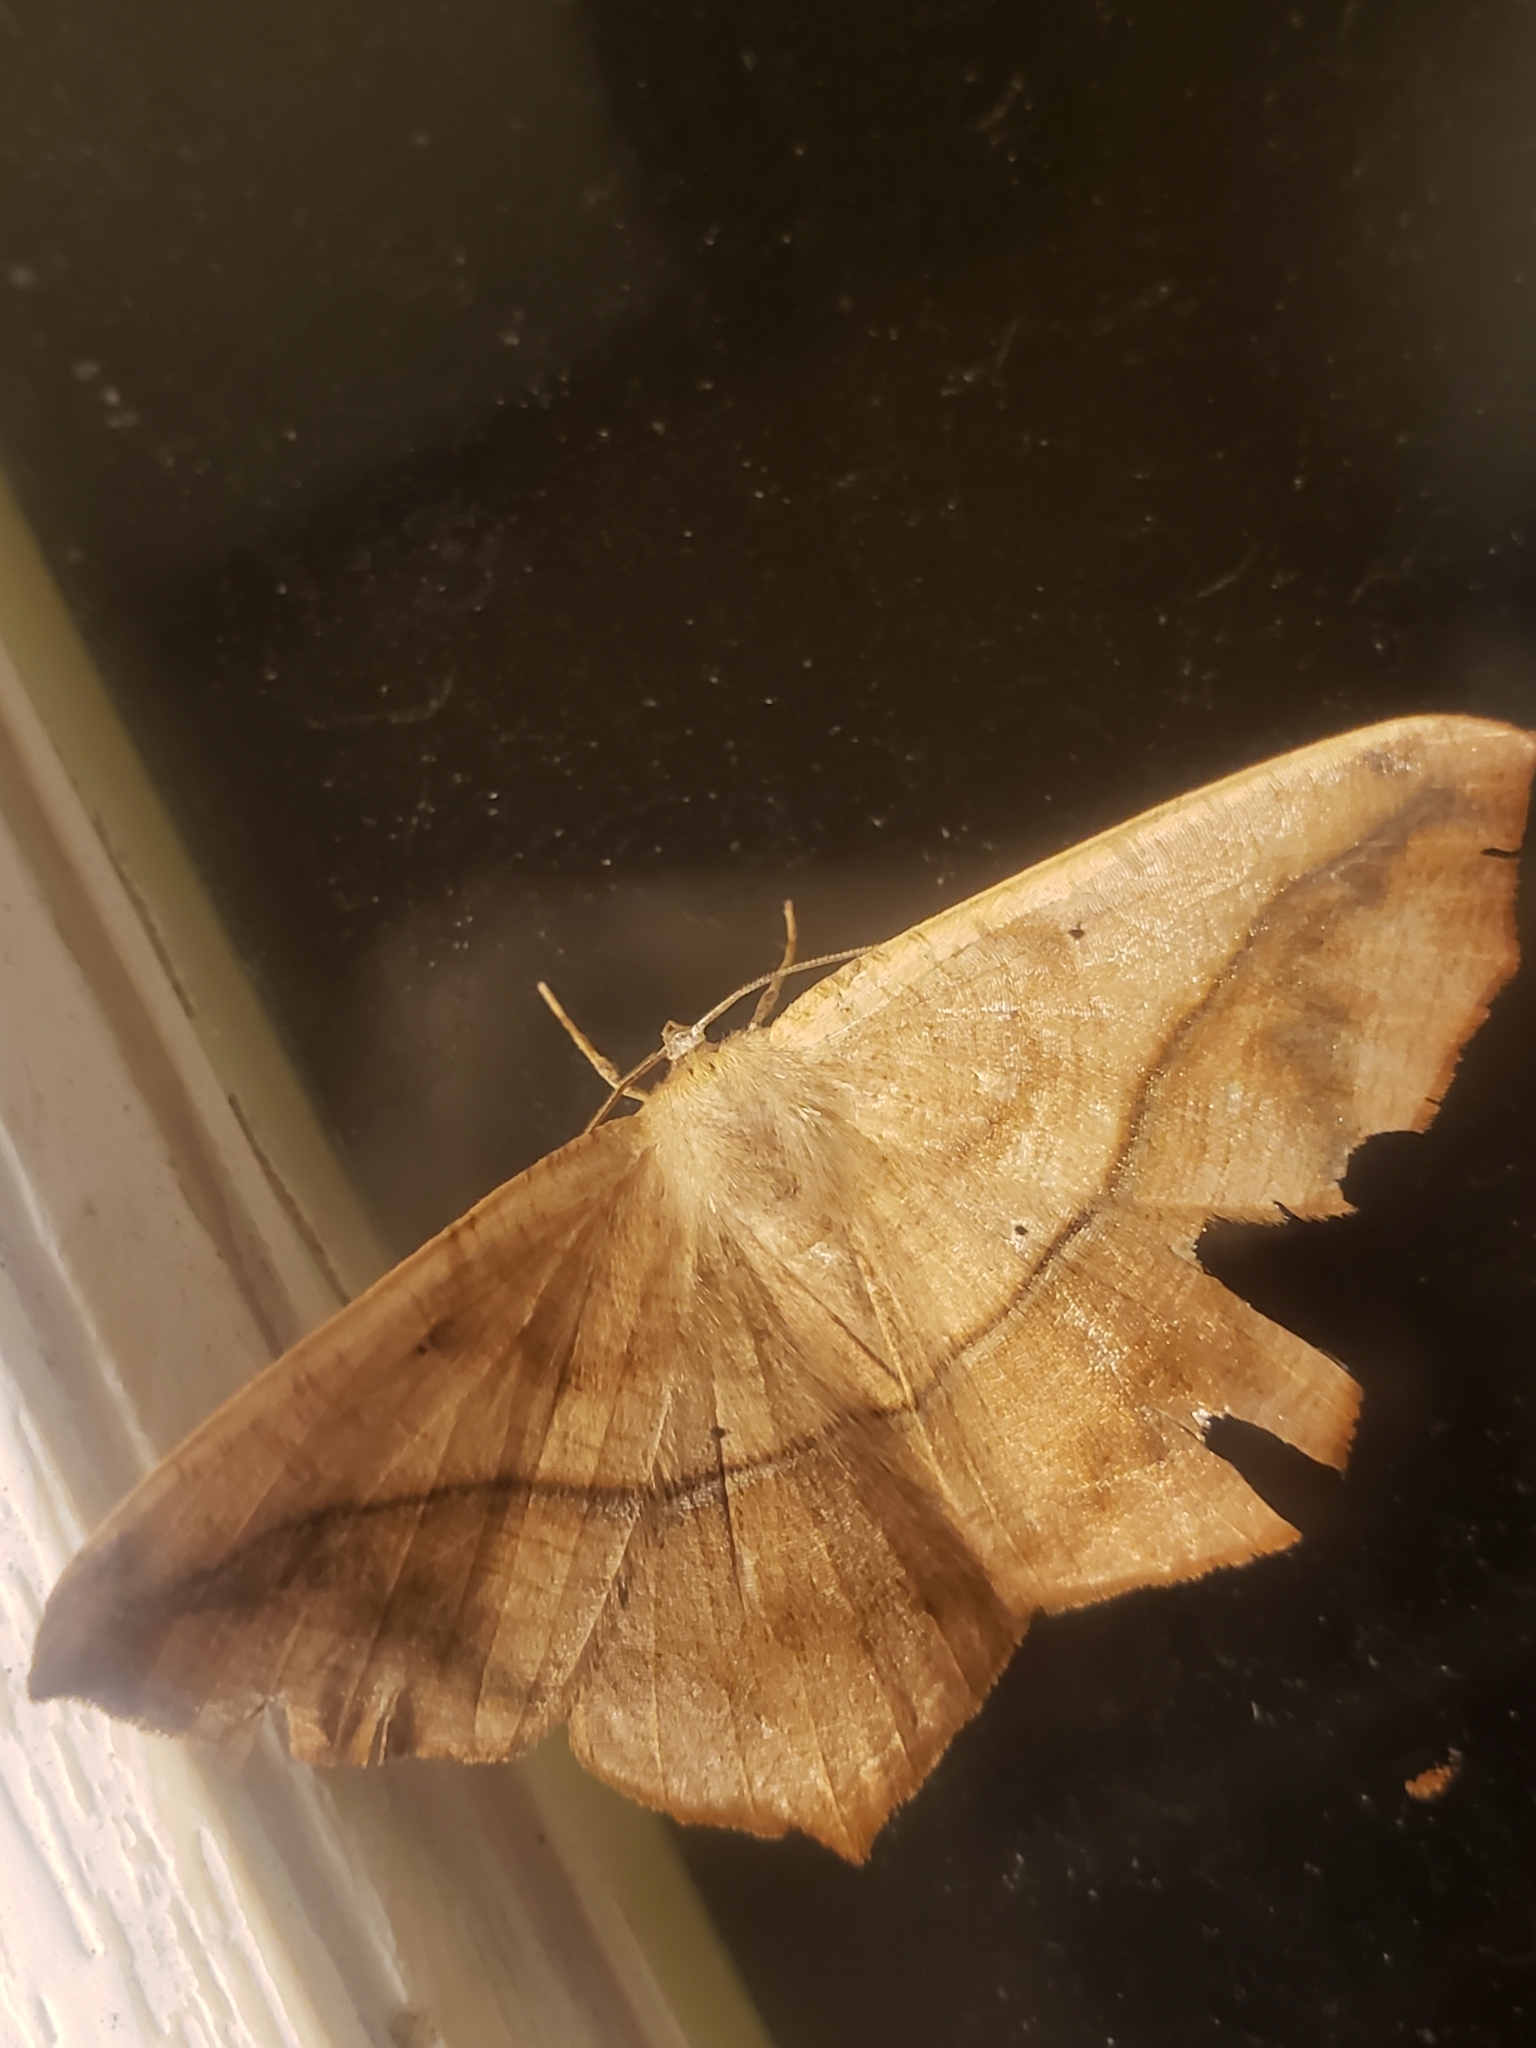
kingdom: Animalia
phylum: Arthropoda
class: Insecta
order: Lepidoptera
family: Geometridae
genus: Prochoerodes
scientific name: Prochoerodes lineola
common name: Large maple spanworm
